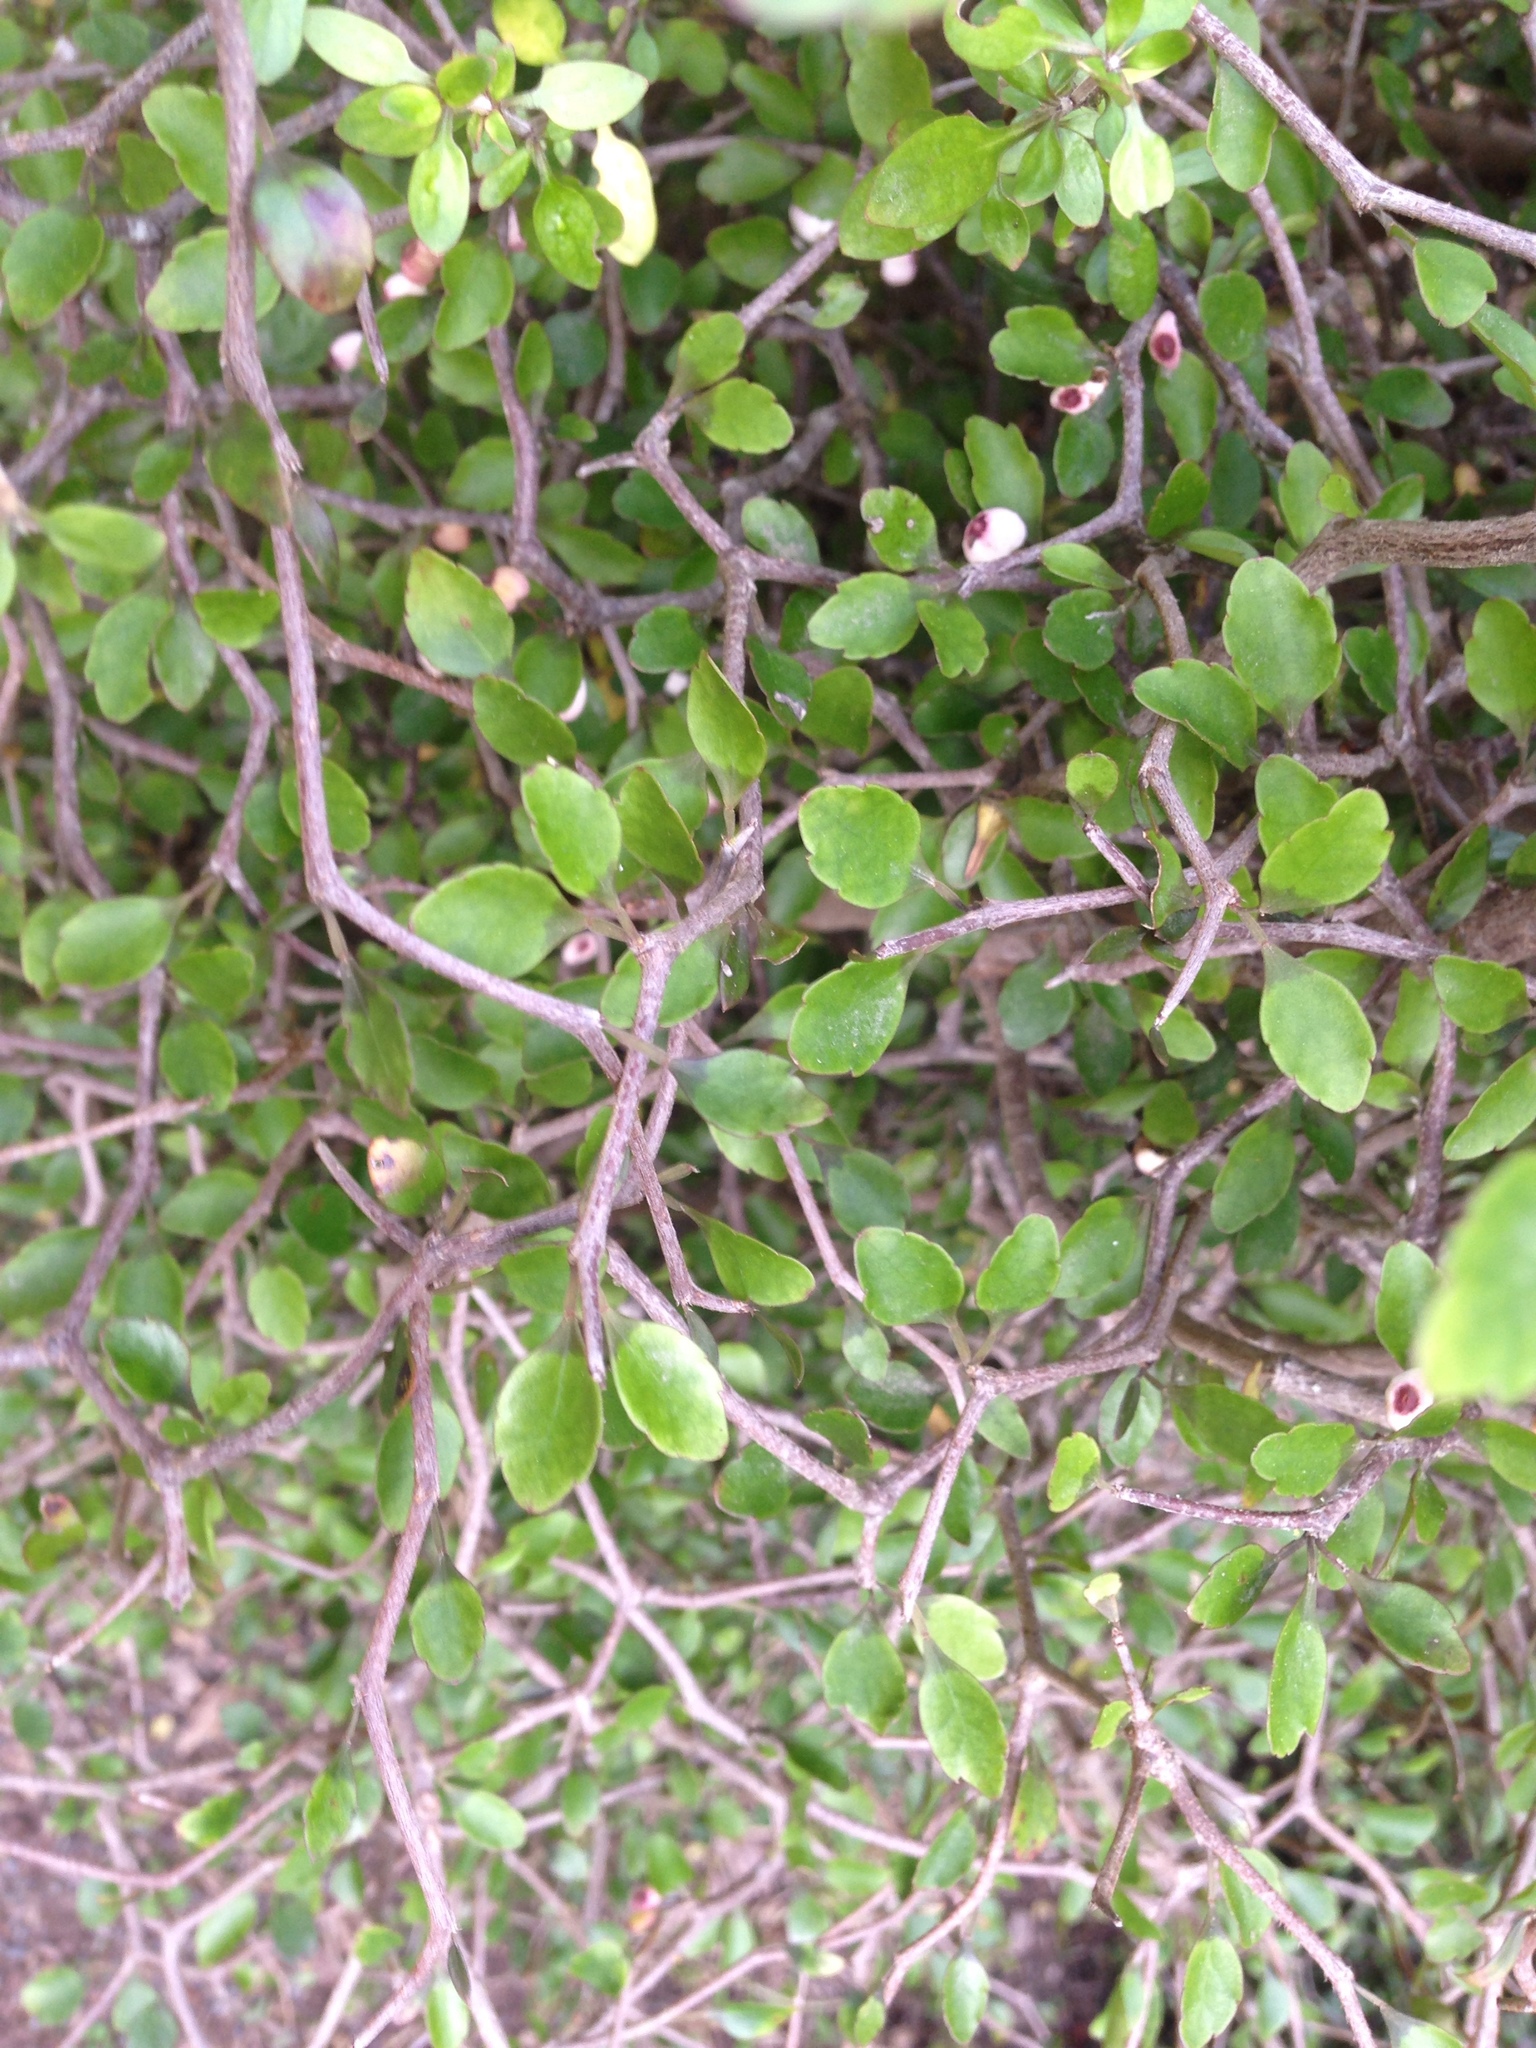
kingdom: Plantae
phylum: Tracheophyta
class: Magnoliopsida
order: Apiales
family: Araliaceae
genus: Raukaua
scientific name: Raukaua anomalus
